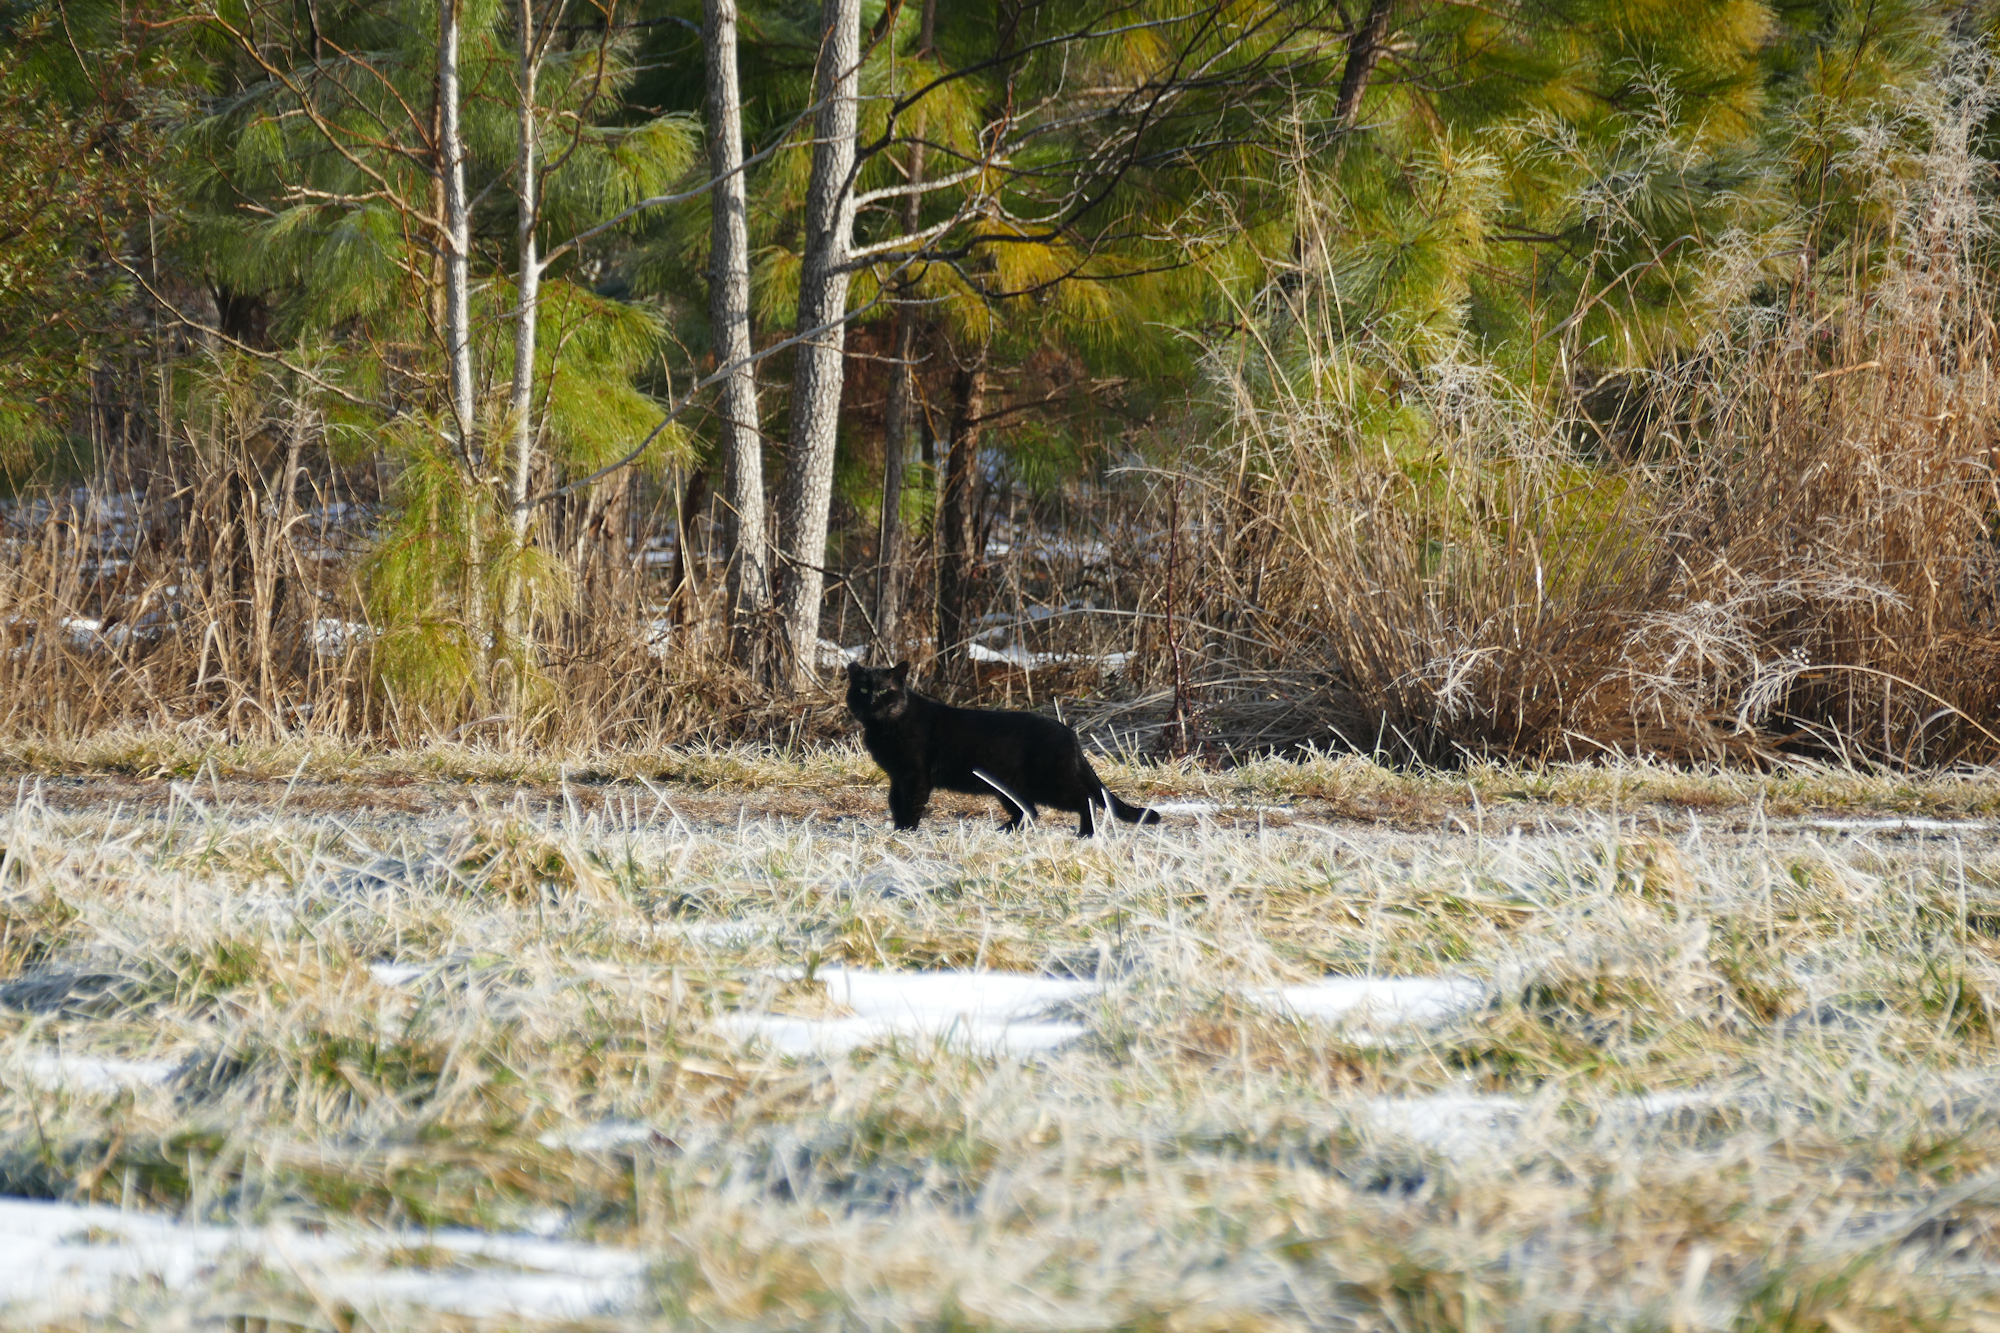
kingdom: Animalia
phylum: Chordata
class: Mammalia
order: Carnivora
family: Felidae
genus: Felis
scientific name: Felis catus
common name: Domestic cat
